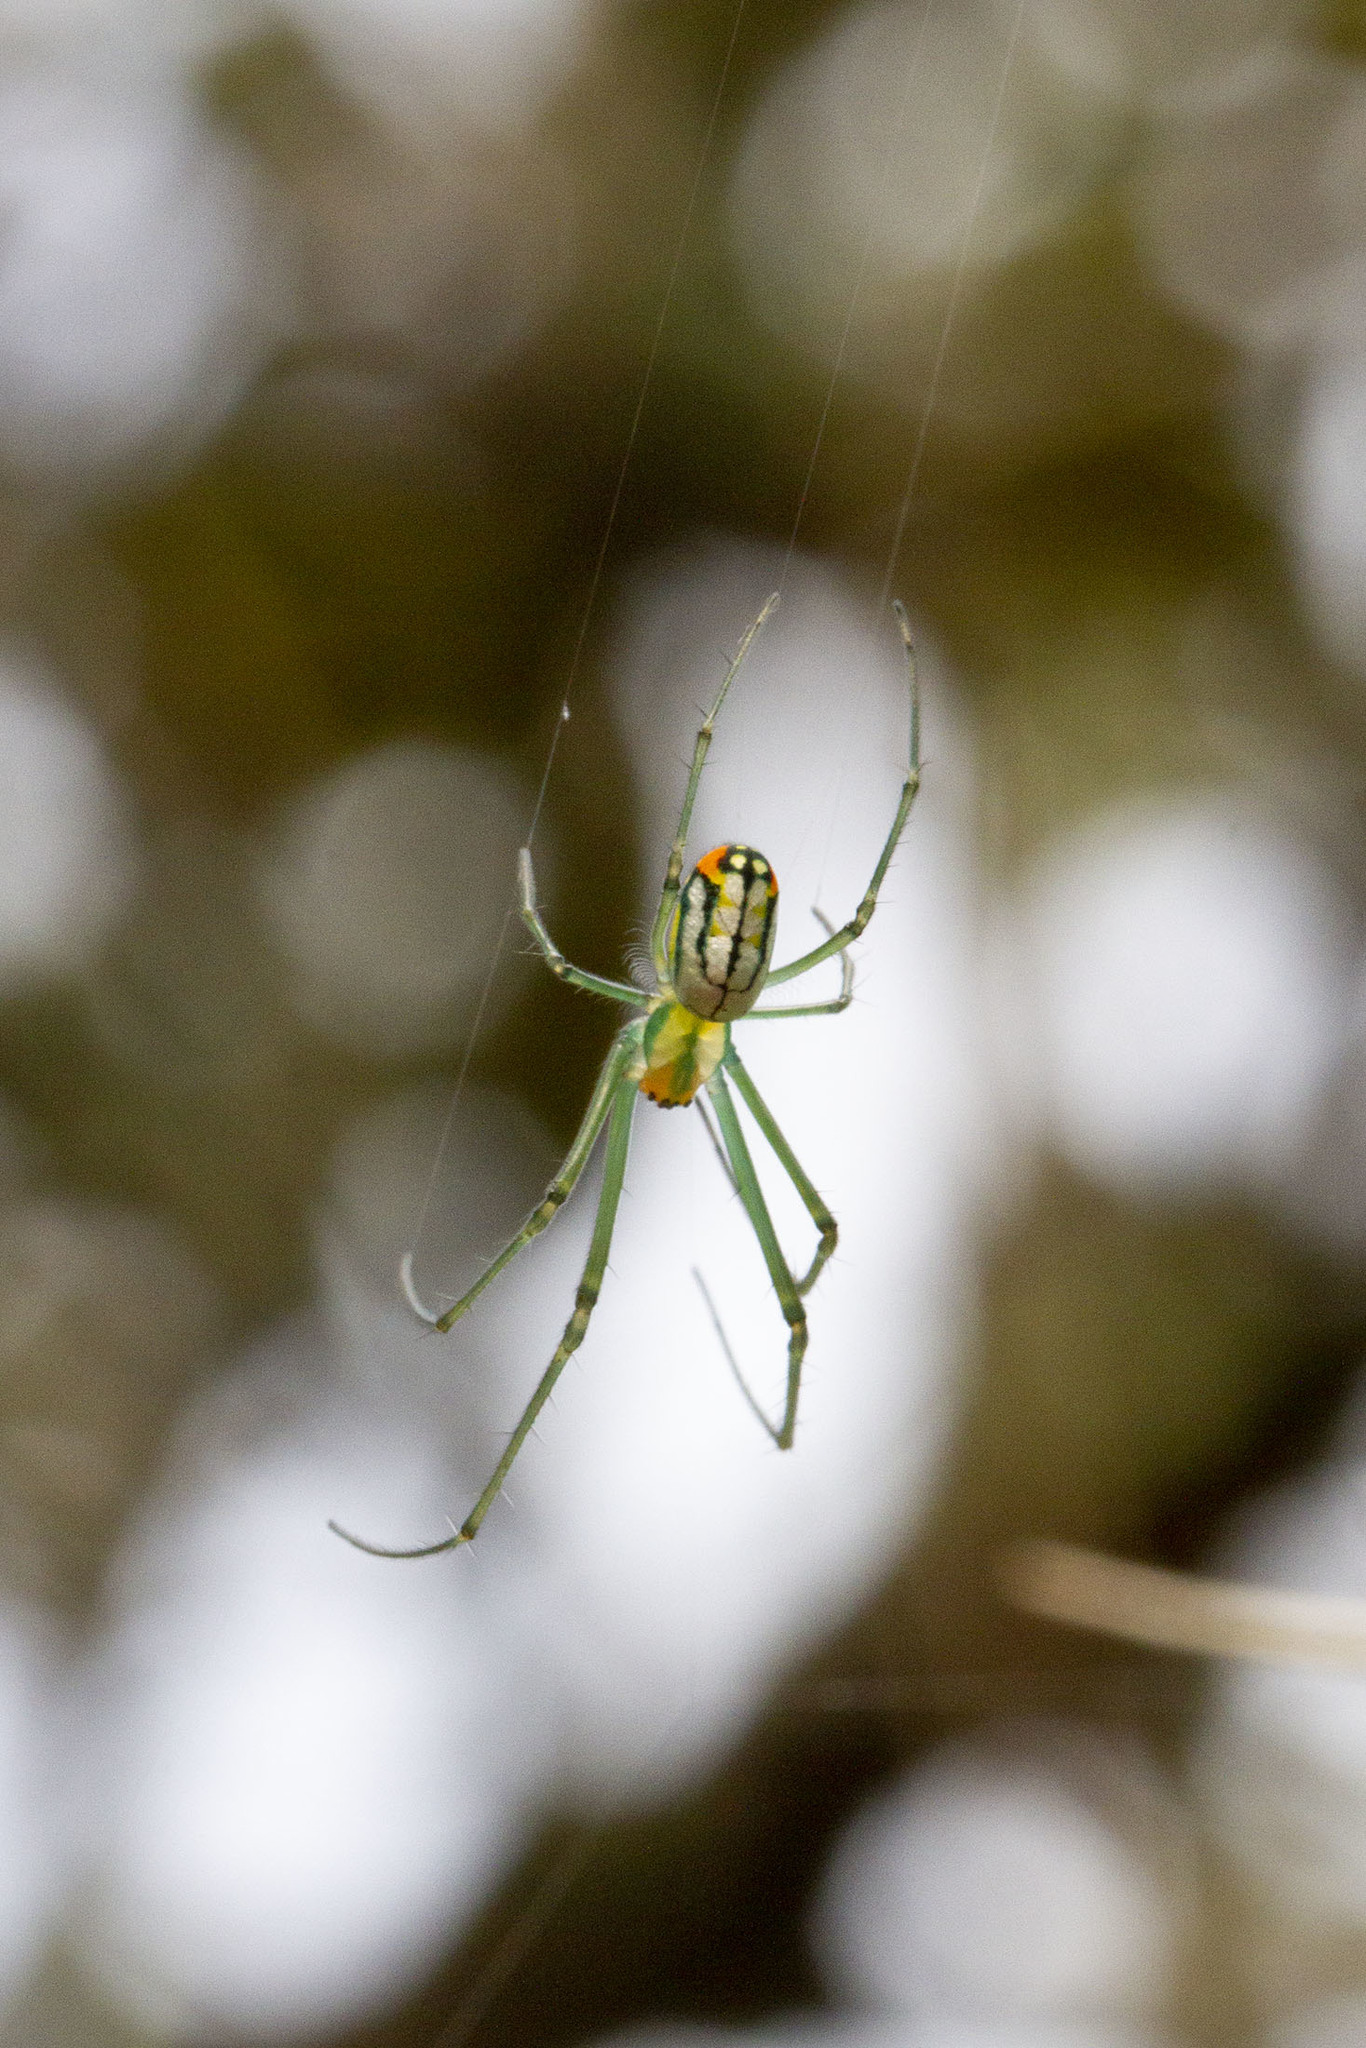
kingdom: Animalia
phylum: Arthropoda
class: Arachnida
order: Araneae
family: Tetragnathidae
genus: Leucauge
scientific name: Leucauge argyrobapta
